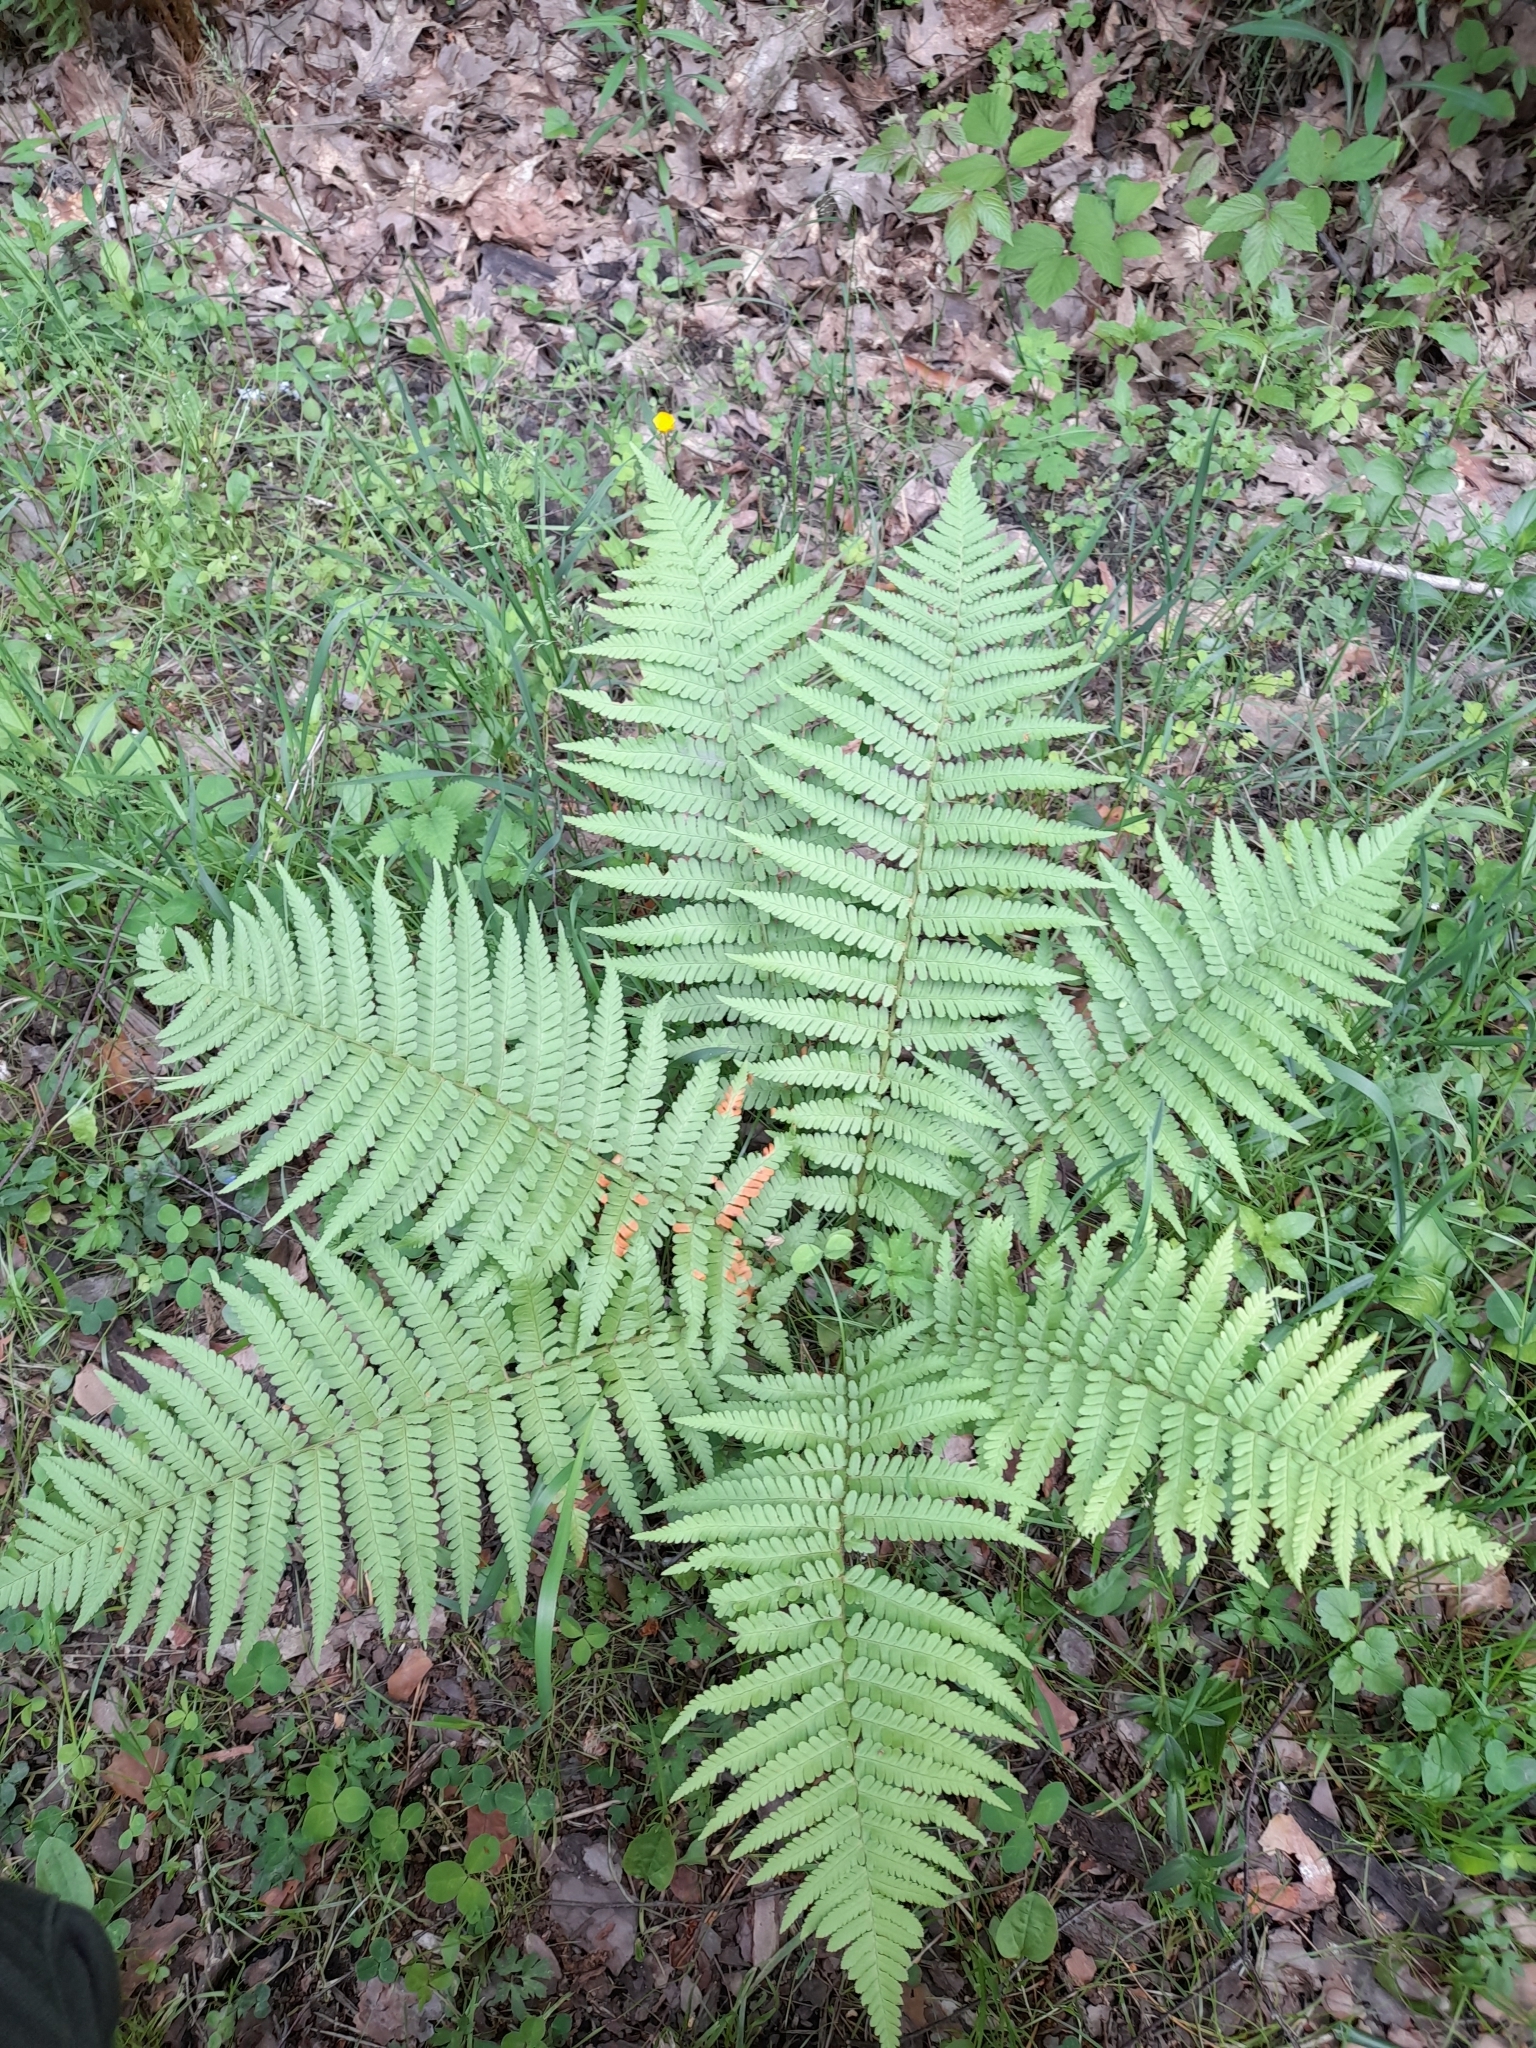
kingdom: Plantae
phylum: Tracheophyta
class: Polypodiopsida
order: Polypodiales
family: Dryopteridaceae
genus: Dryopteris
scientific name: Dryopteris filix-mas
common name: Male fern
